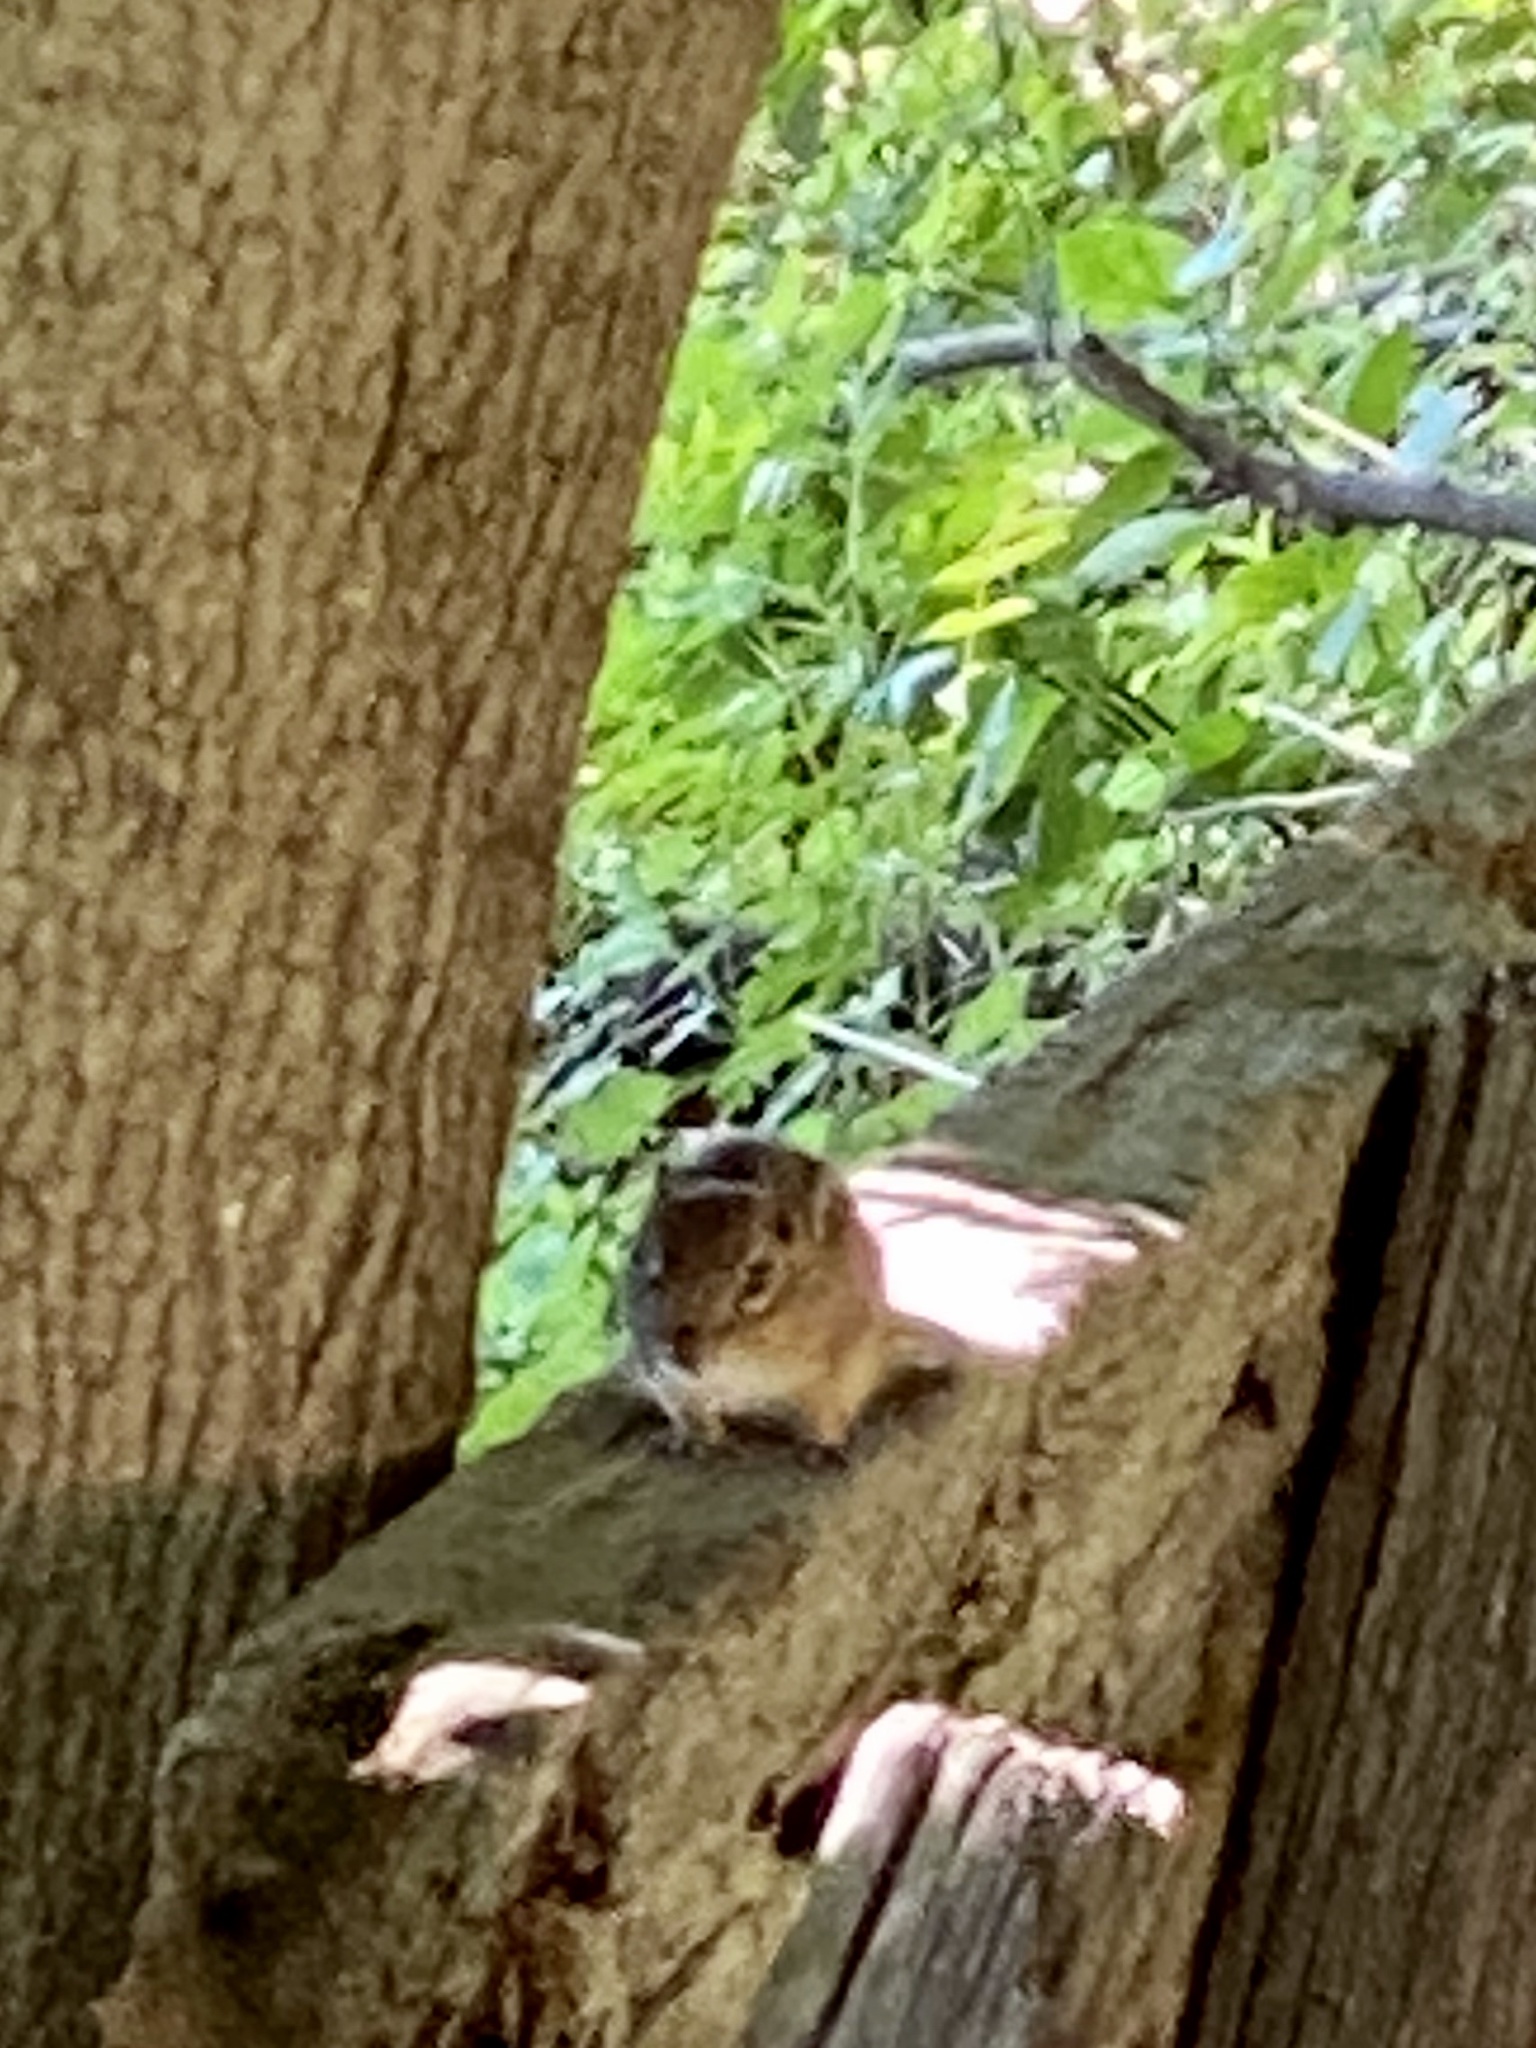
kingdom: Animalia
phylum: Chordata
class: Mammalia
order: Rodentia
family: Sciuridae
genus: Tamias
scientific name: Tamias striatus
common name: Eastern chipmunk
